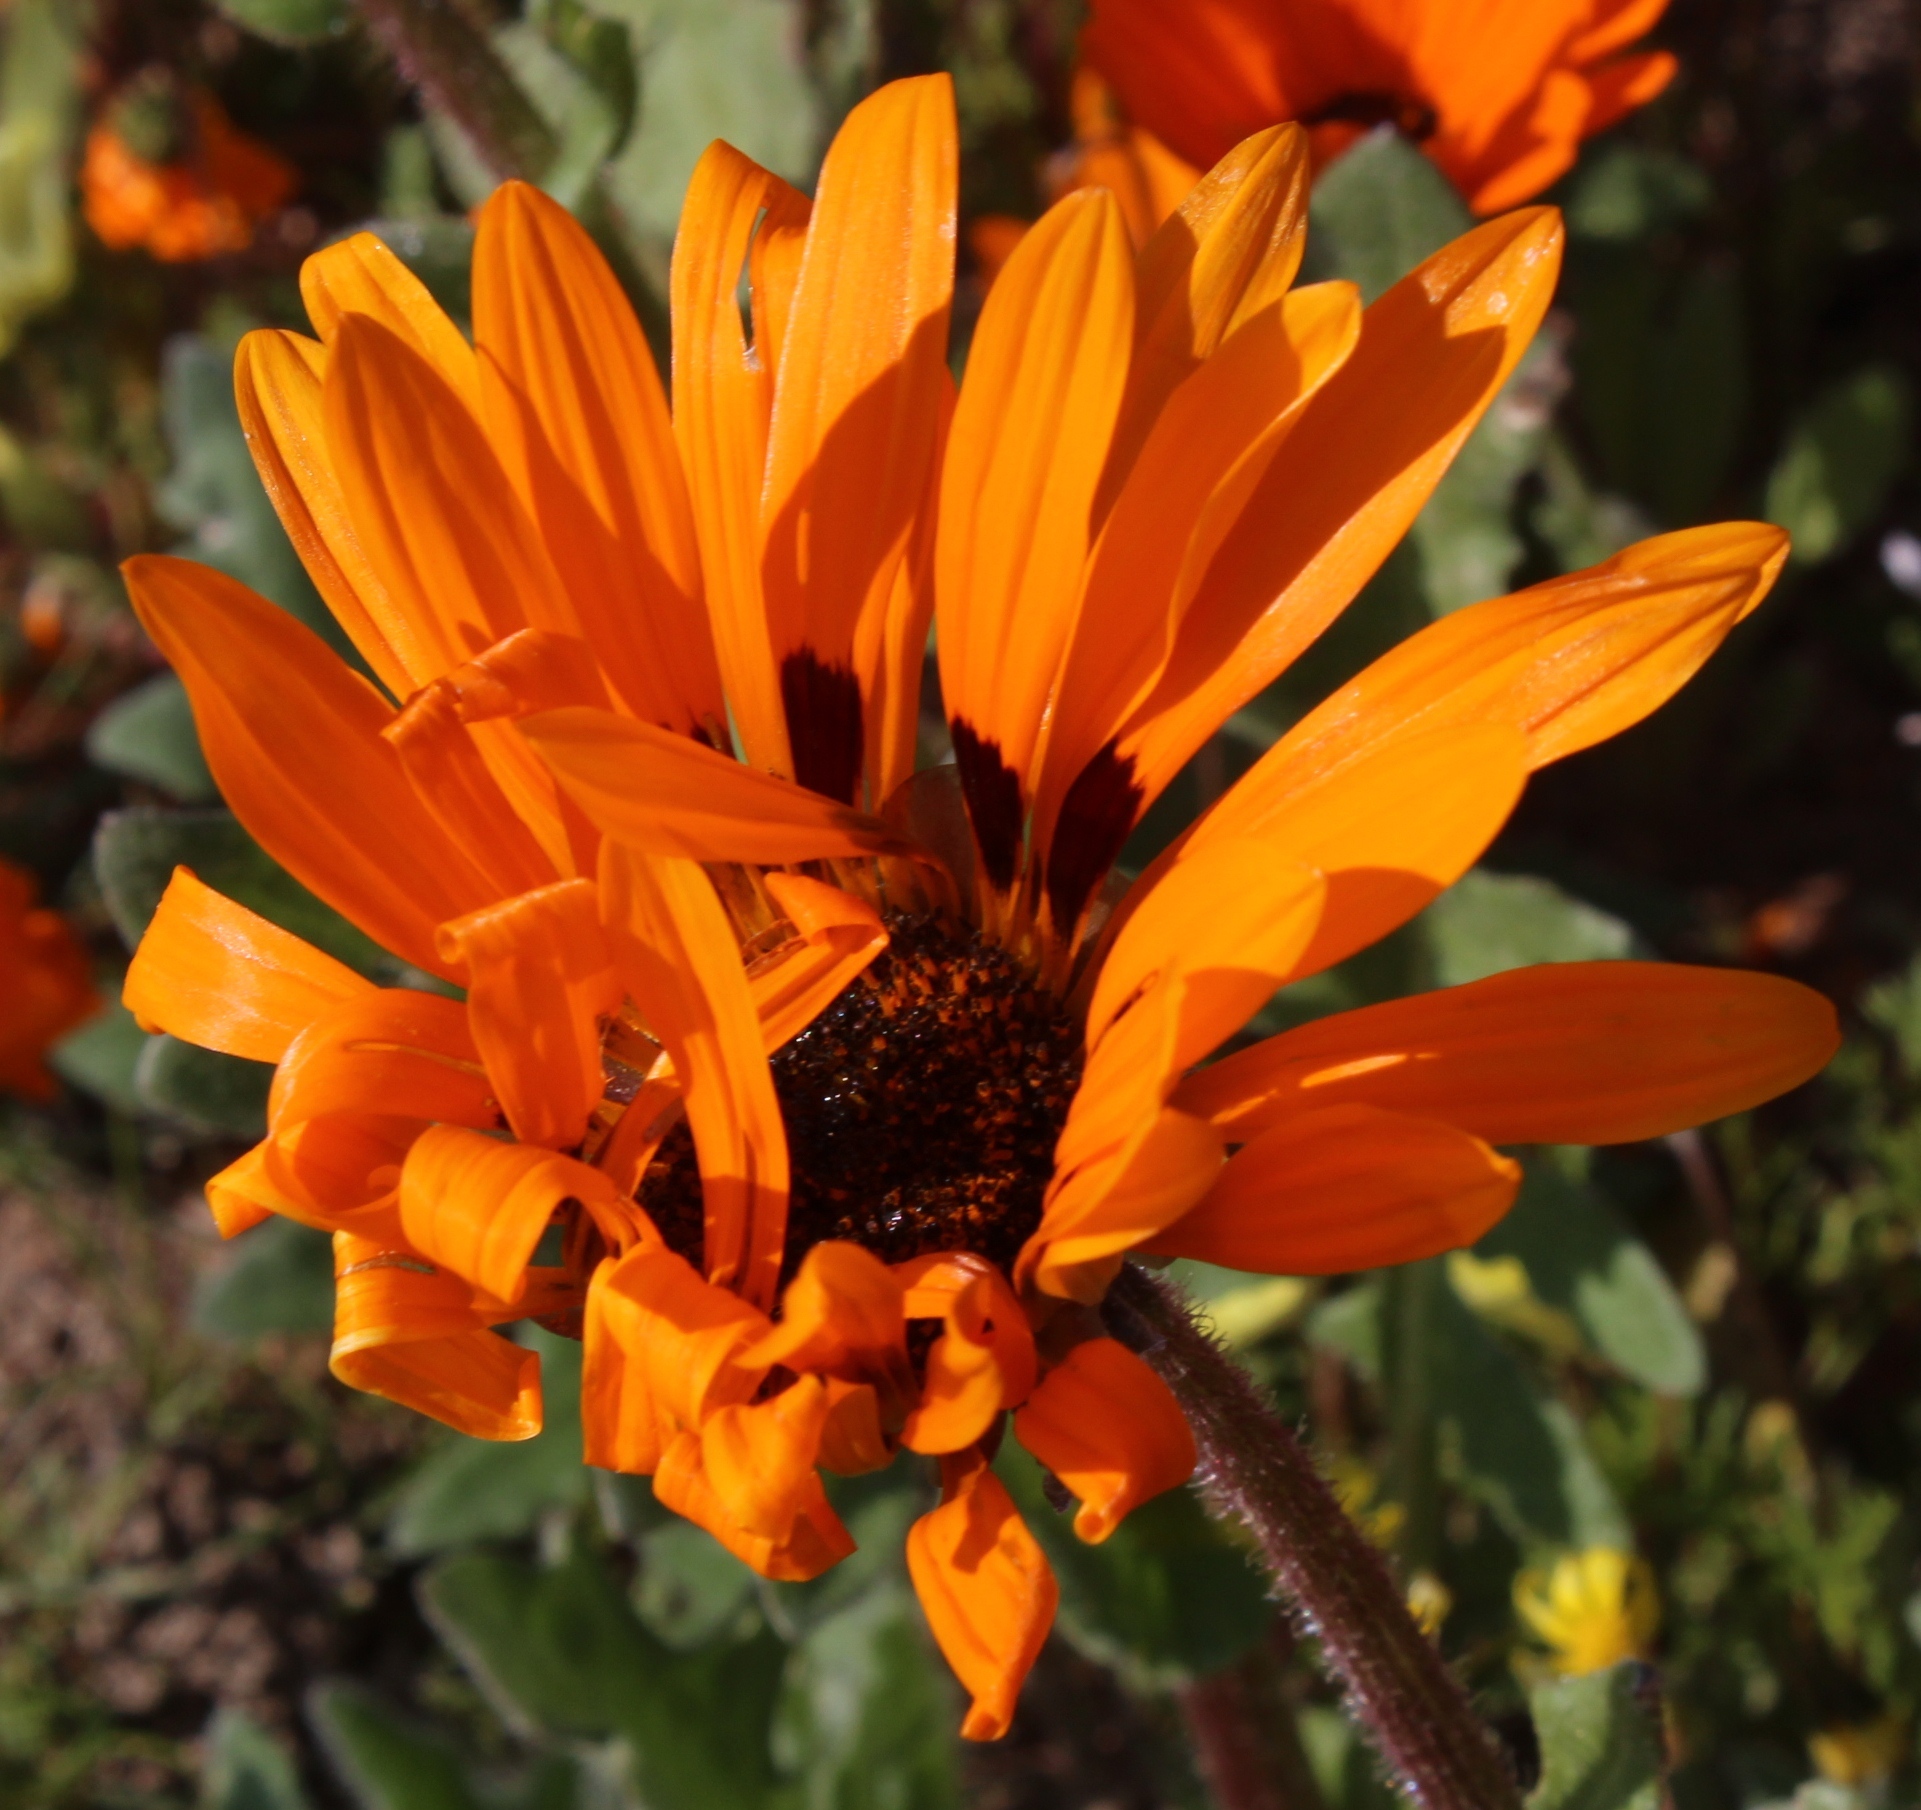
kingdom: Plantae
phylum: Tracheophyta
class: Magnoliopsida
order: Asterales
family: Asteraceae
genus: Arctotis
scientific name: Arctotis fastuosa
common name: Monarch of the veld
